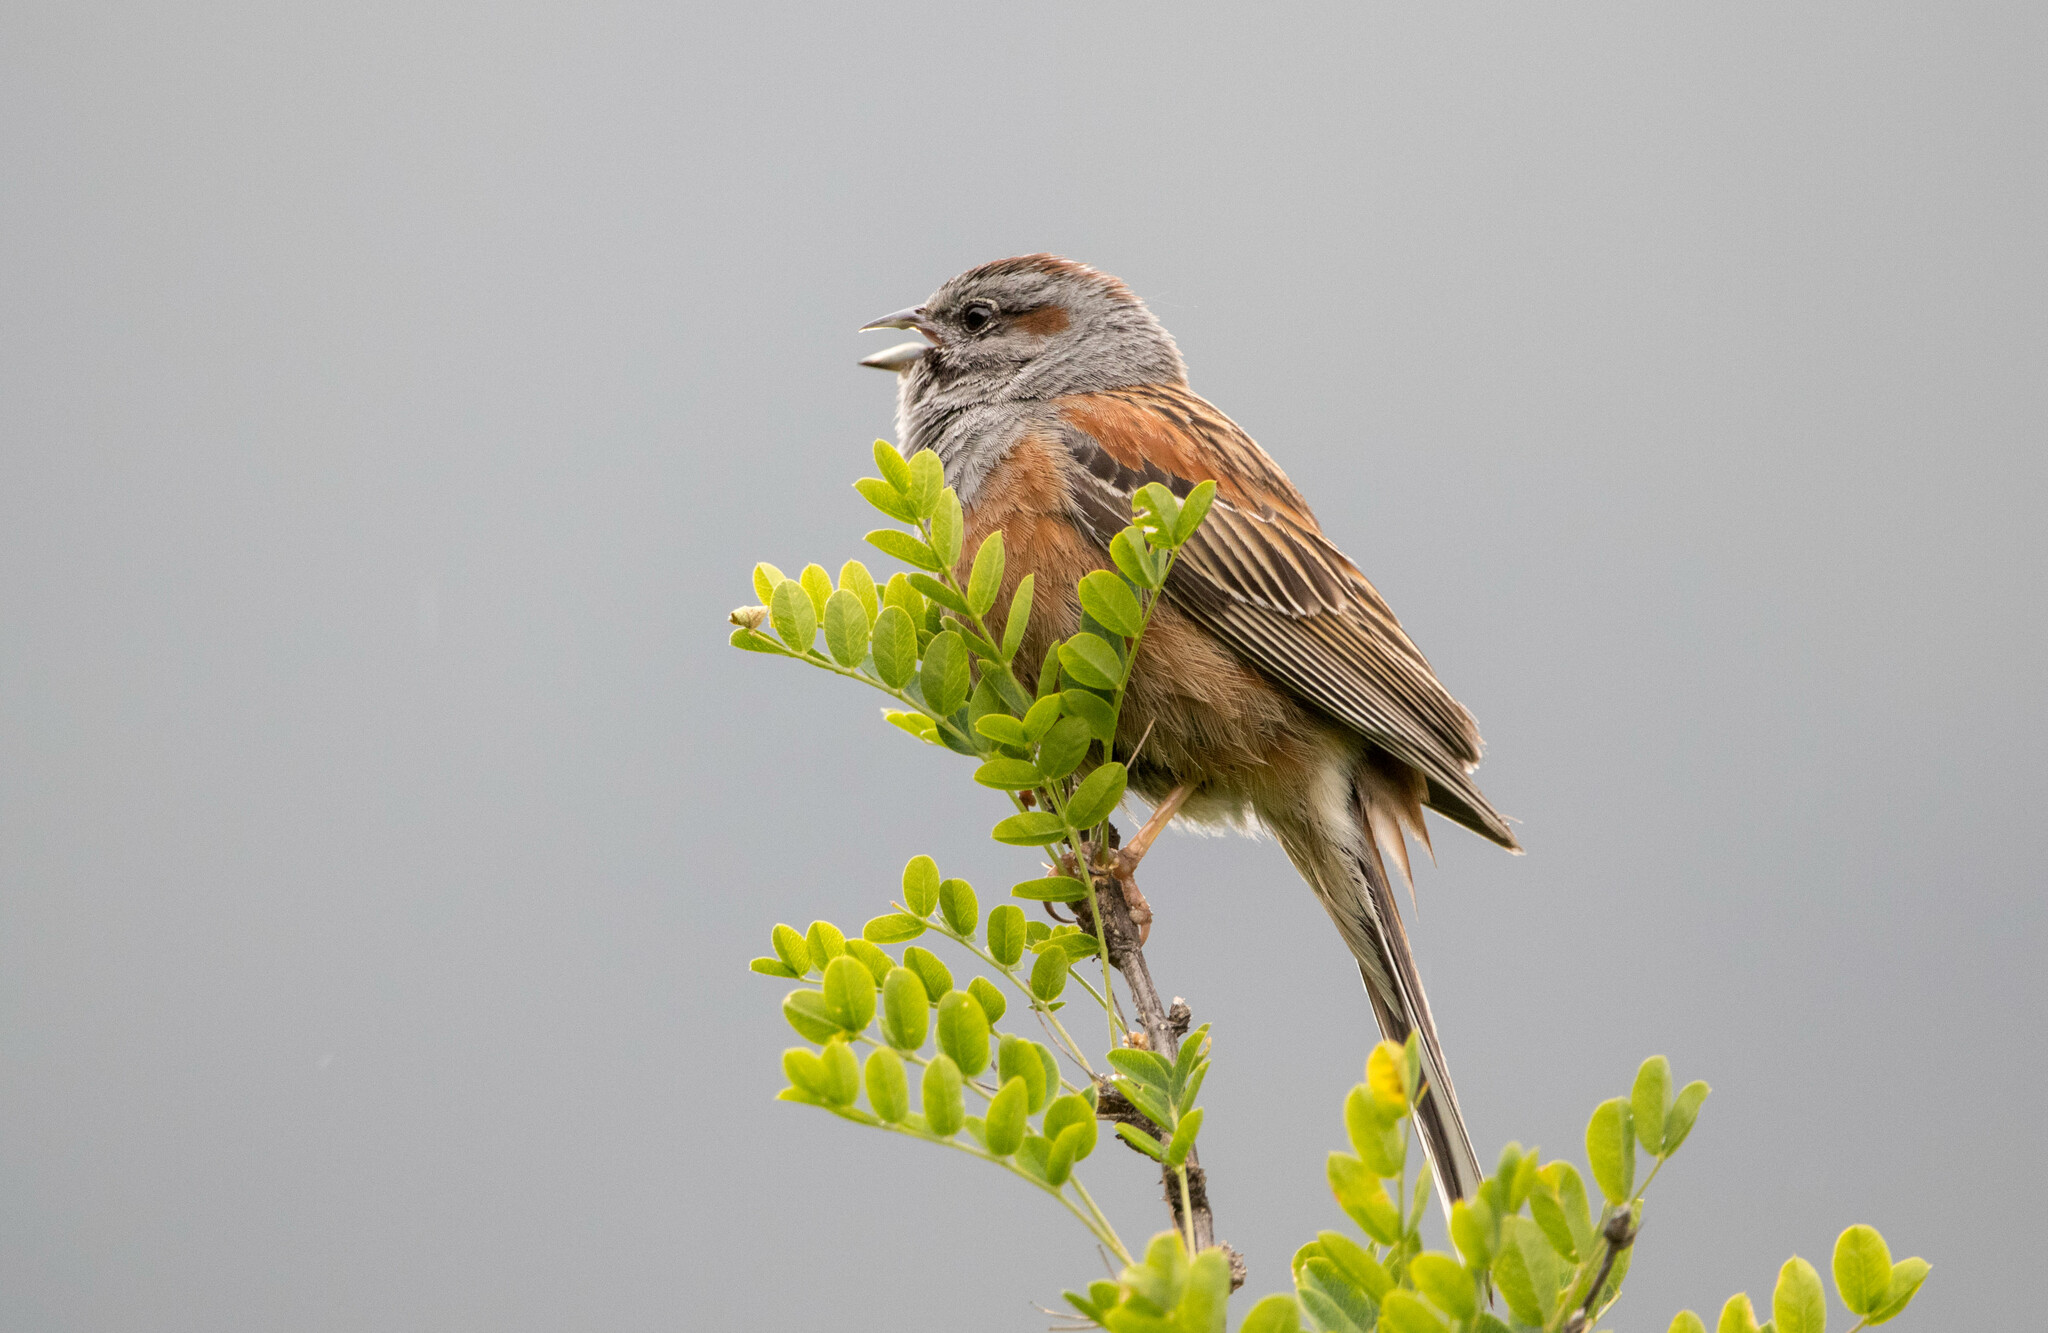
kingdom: Animalia
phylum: Chordata
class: Aves
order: Passeriformes
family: Emberizidae
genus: Emberiza
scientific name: Emberiza godlewskii
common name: Godlewski's bunting
